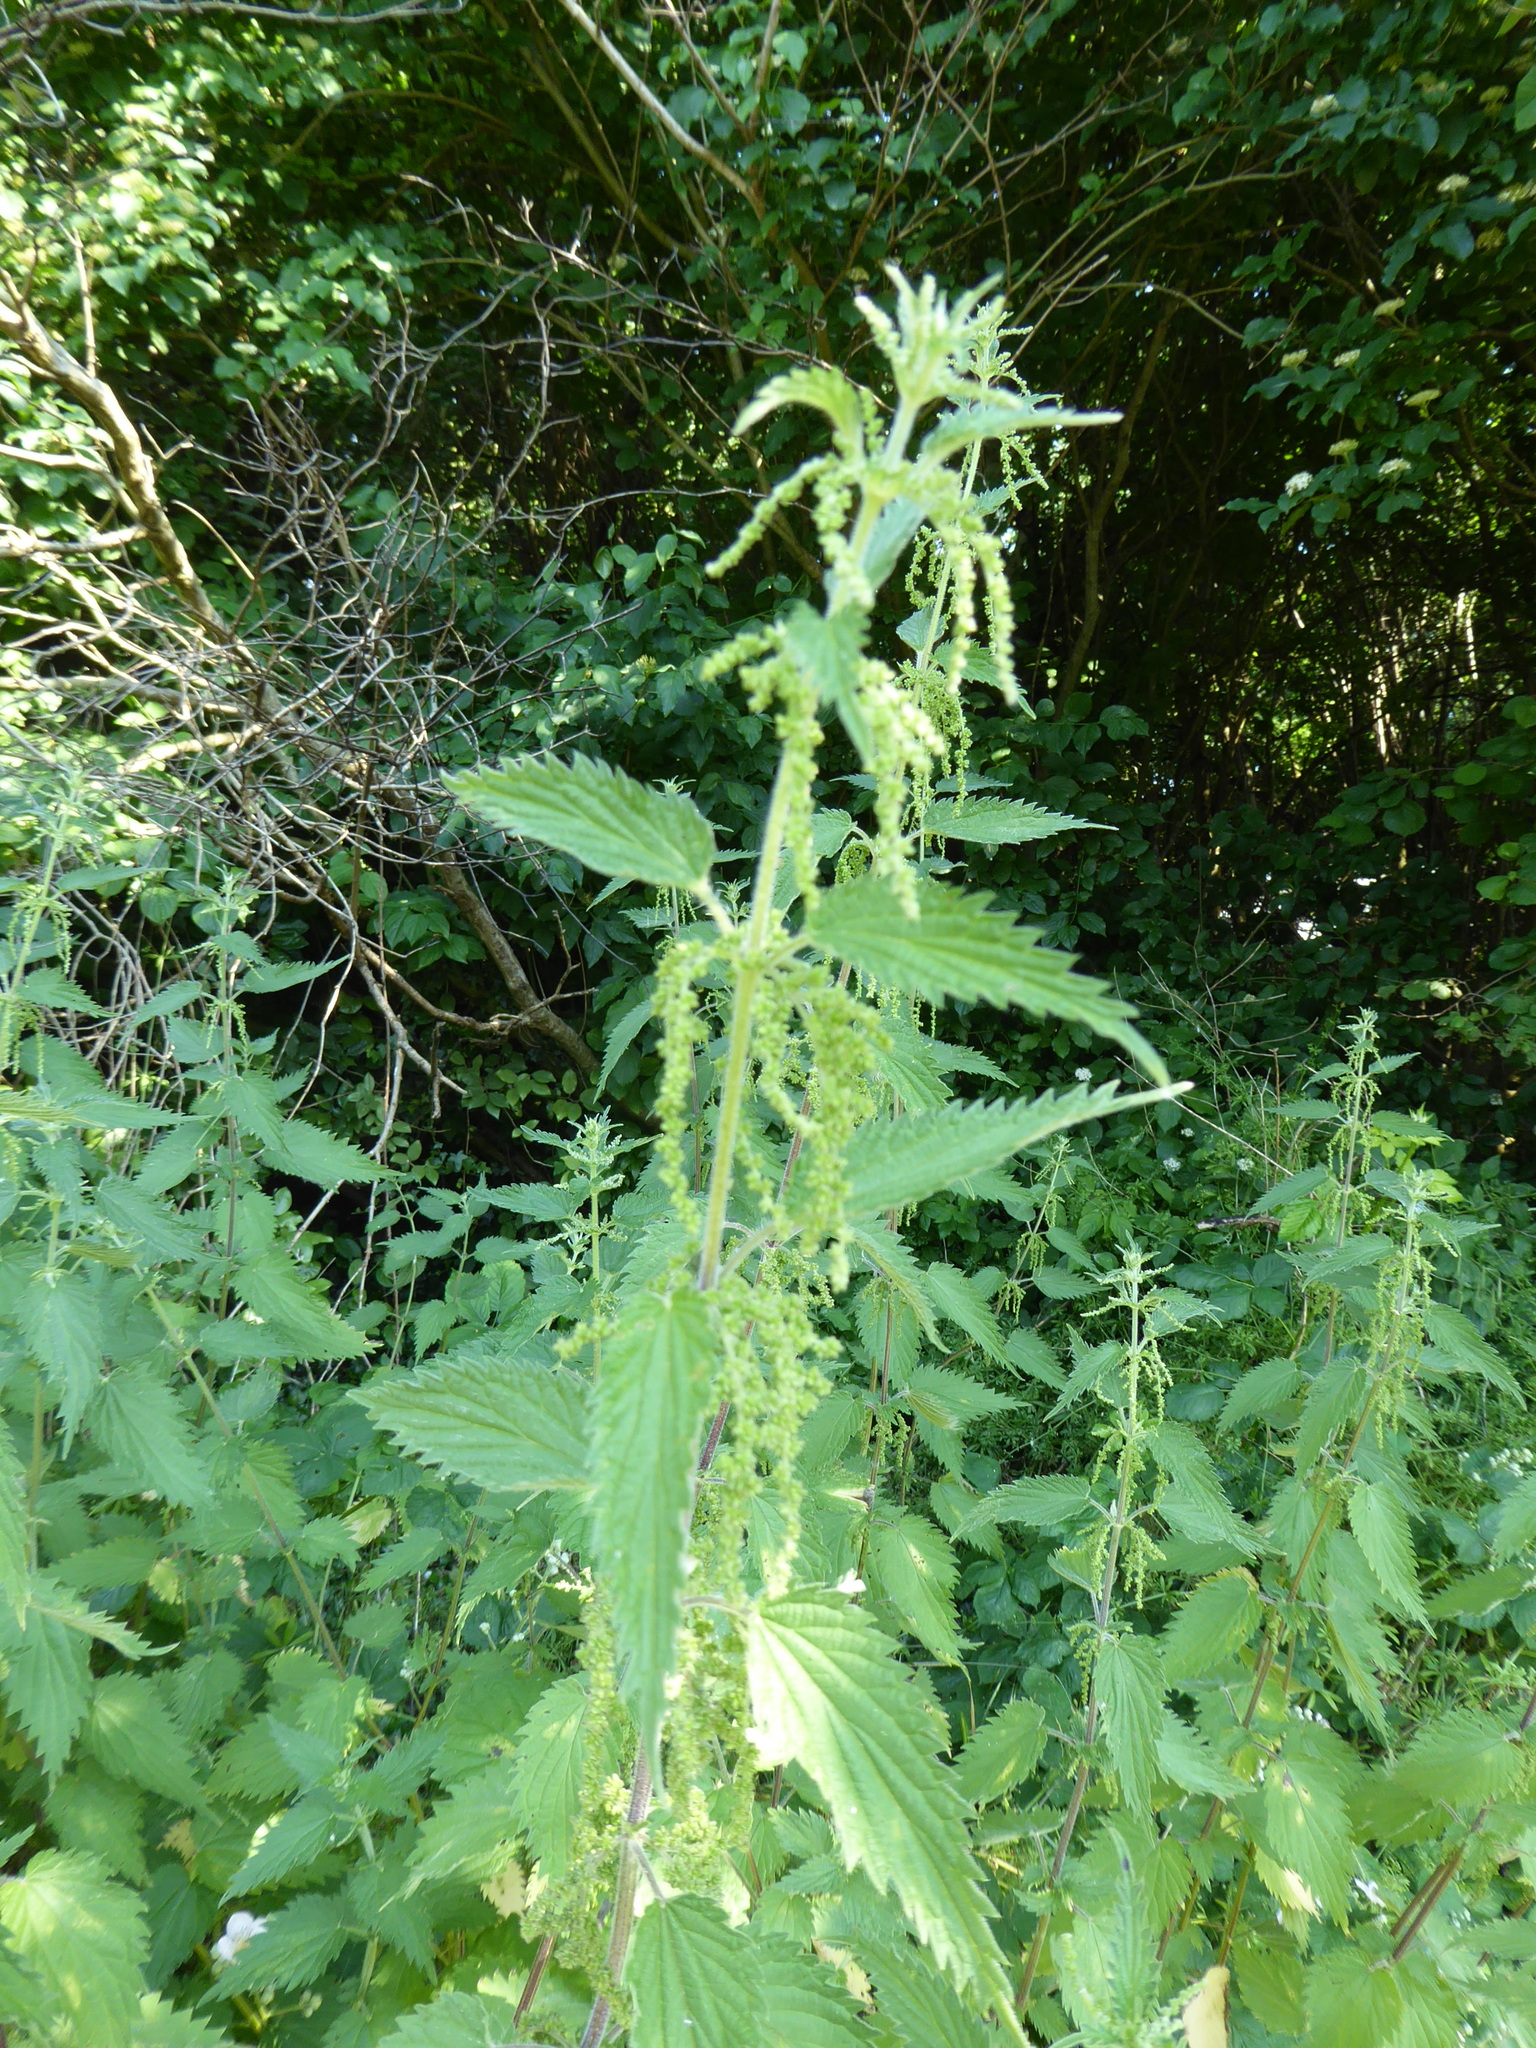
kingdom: Plantae
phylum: Tracheophyta
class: Magnoliopsida
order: Rosales
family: Urticaceae
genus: Urtica
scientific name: Urtica dioica
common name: Common nettle
